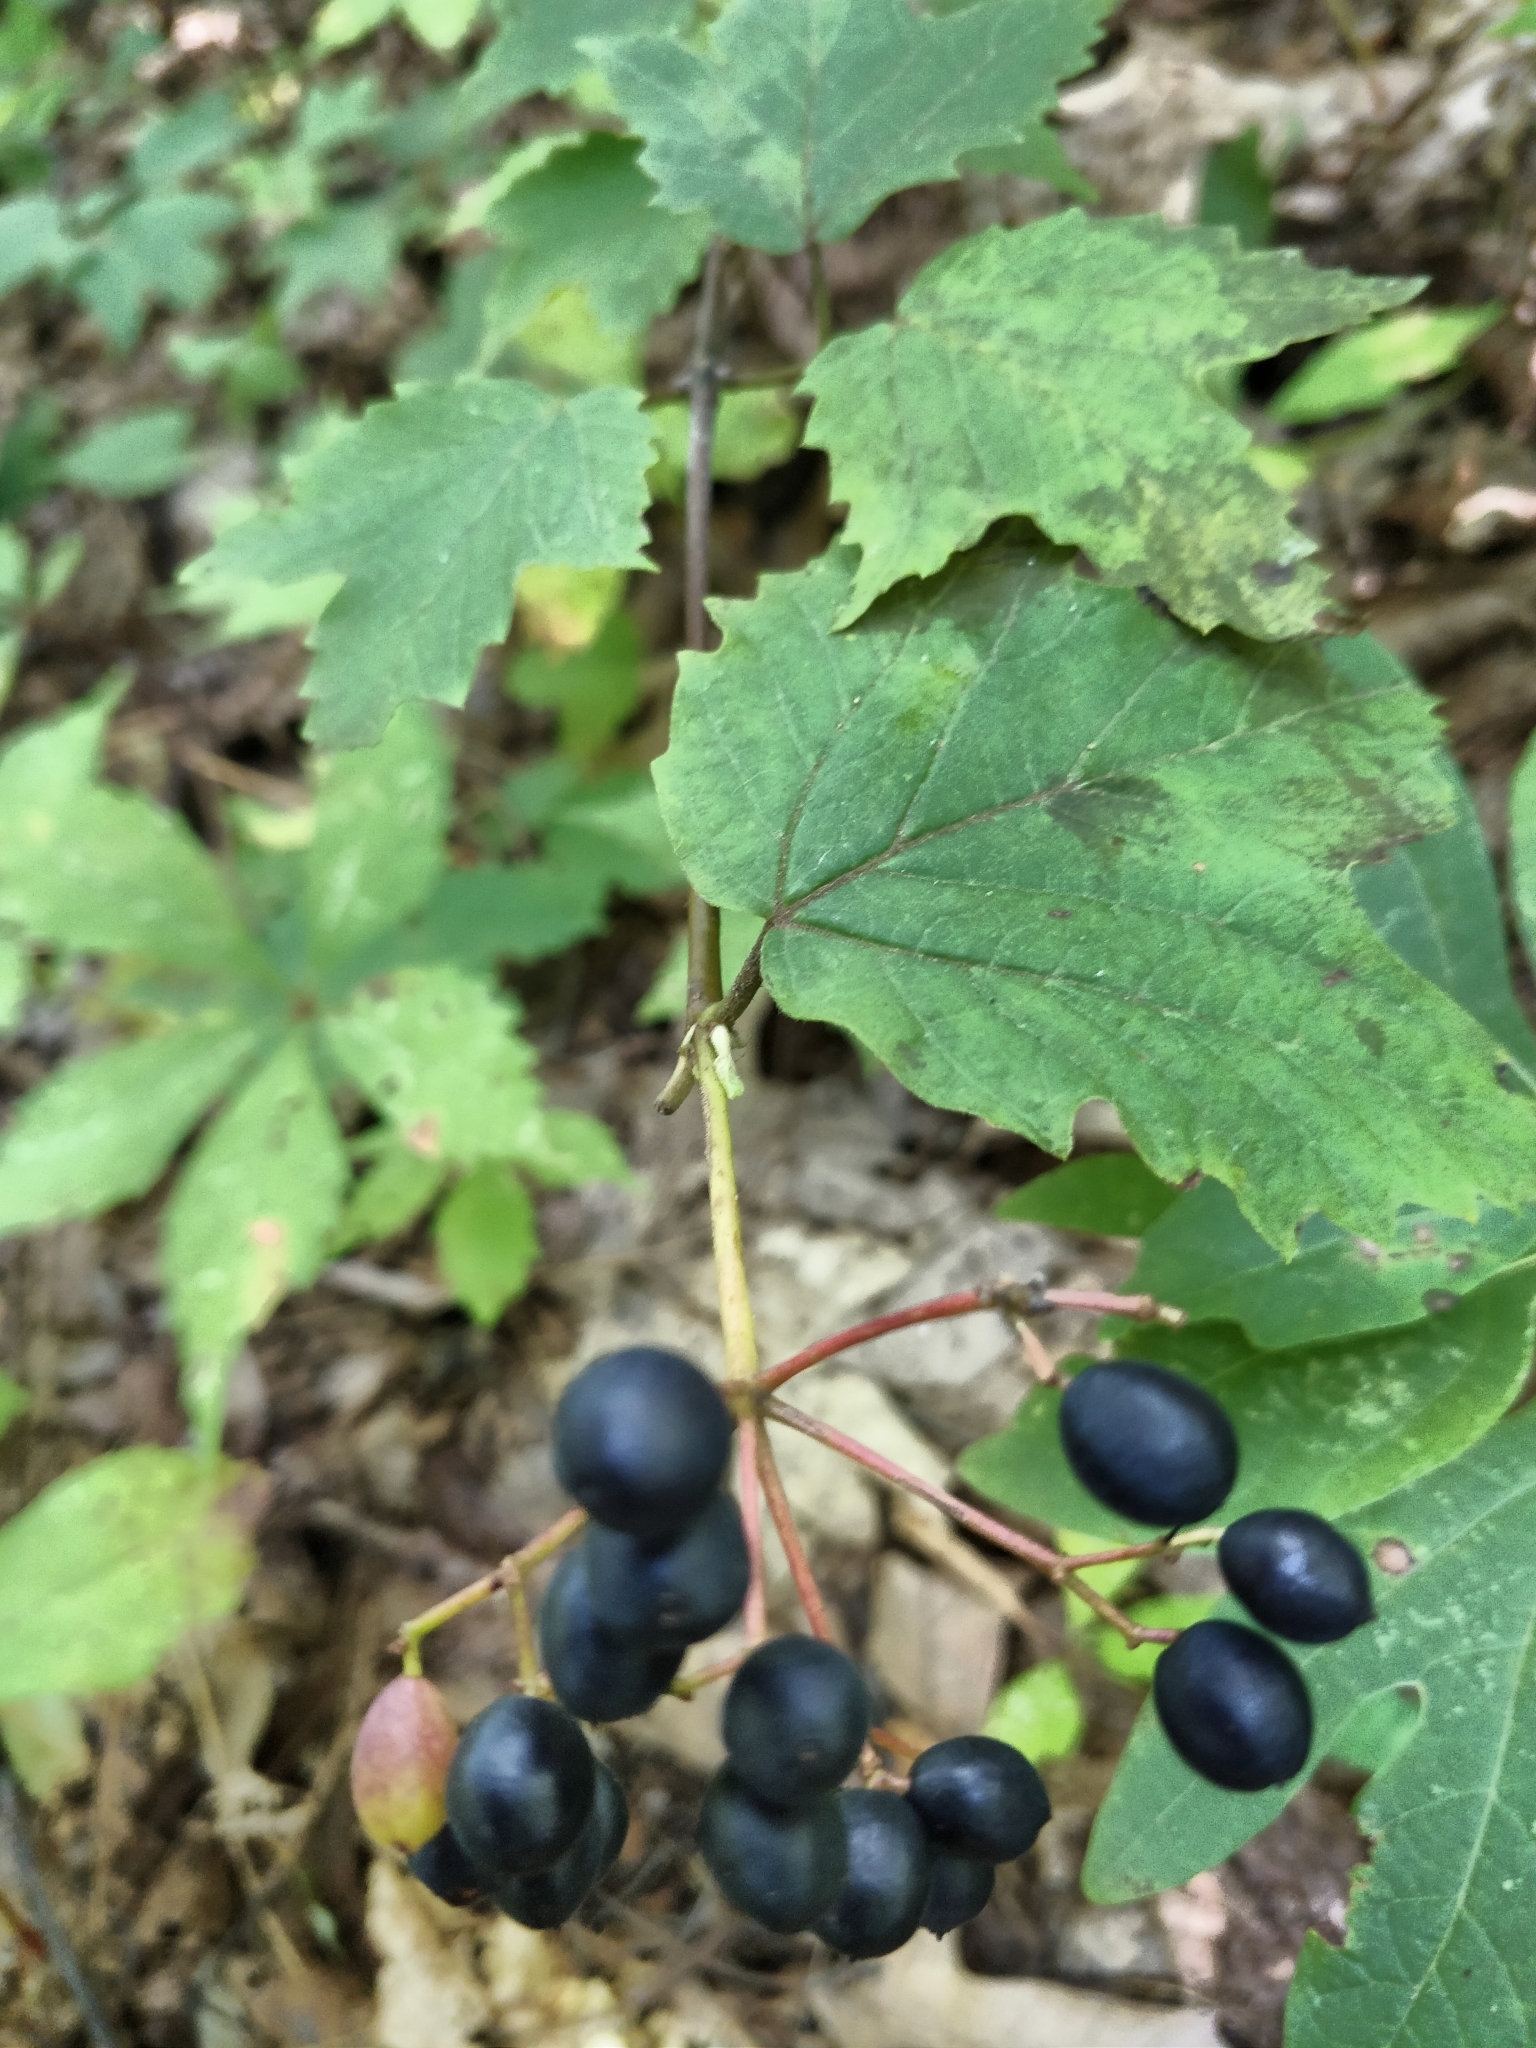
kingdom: Plantae
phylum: Tracheophyta
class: Magnoliopsida
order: Dipsacales
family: Viburnaceae
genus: Viburnum
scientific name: Viburnum acerifolium
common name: Dockmackie
